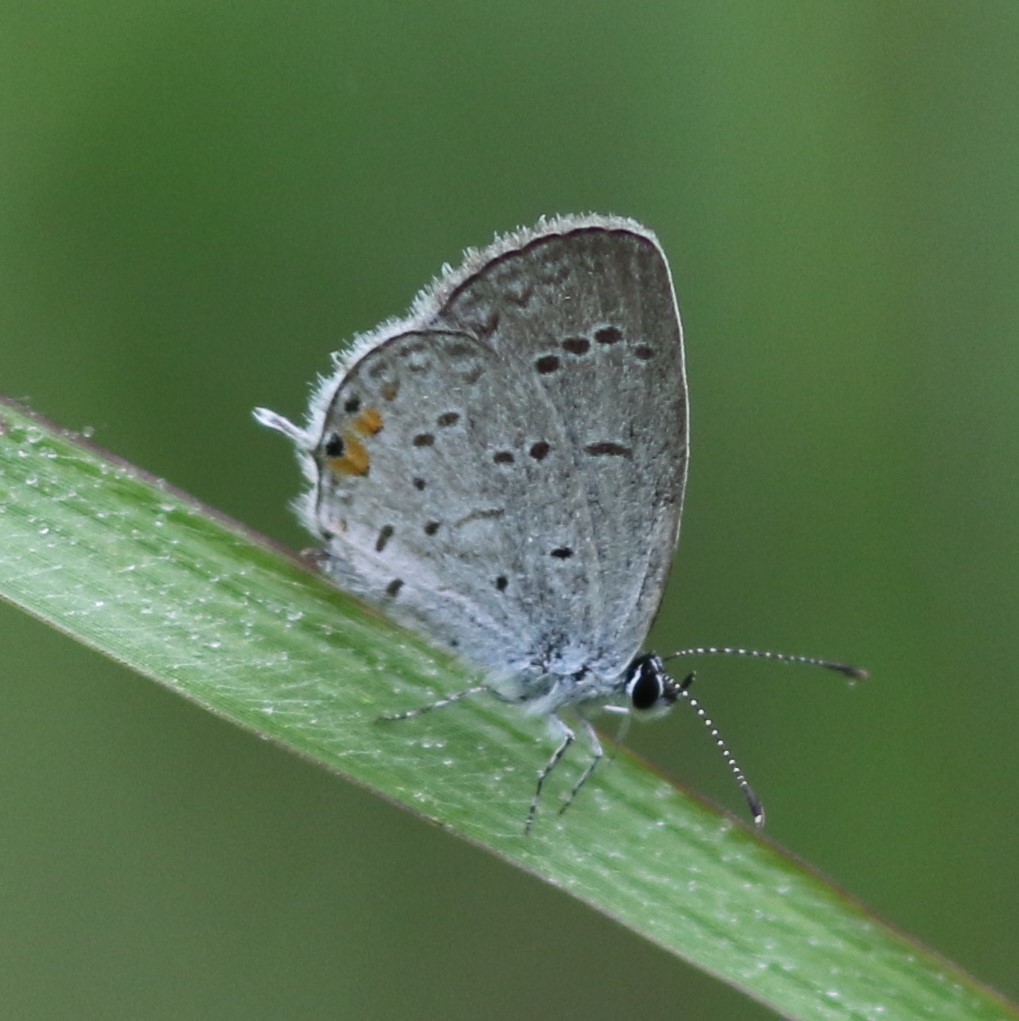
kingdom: Animalia
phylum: Arthropoda
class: Insecta
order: Lepidoptera
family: Lycaenidae
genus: Elkalyce
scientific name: Elkalyce comyntas
